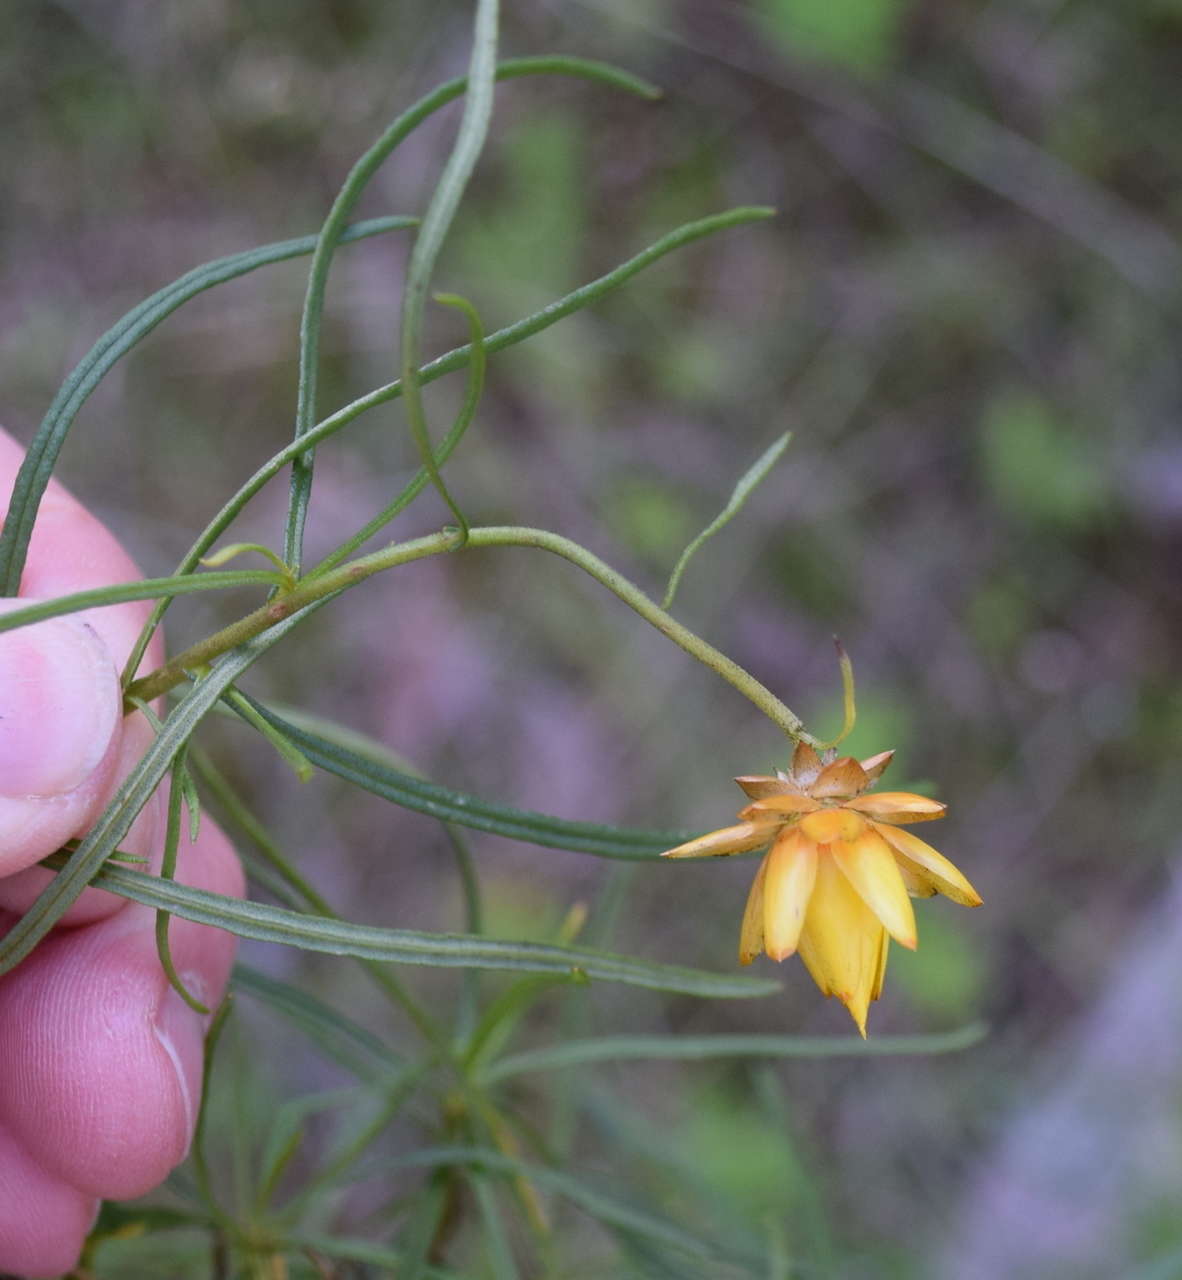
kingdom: Plantae
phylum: Tracheophyta
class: Magnoliopsida
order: Asterales
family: Asteraceae
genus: Xerochrysum
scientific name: Xerochrysum viscosum
